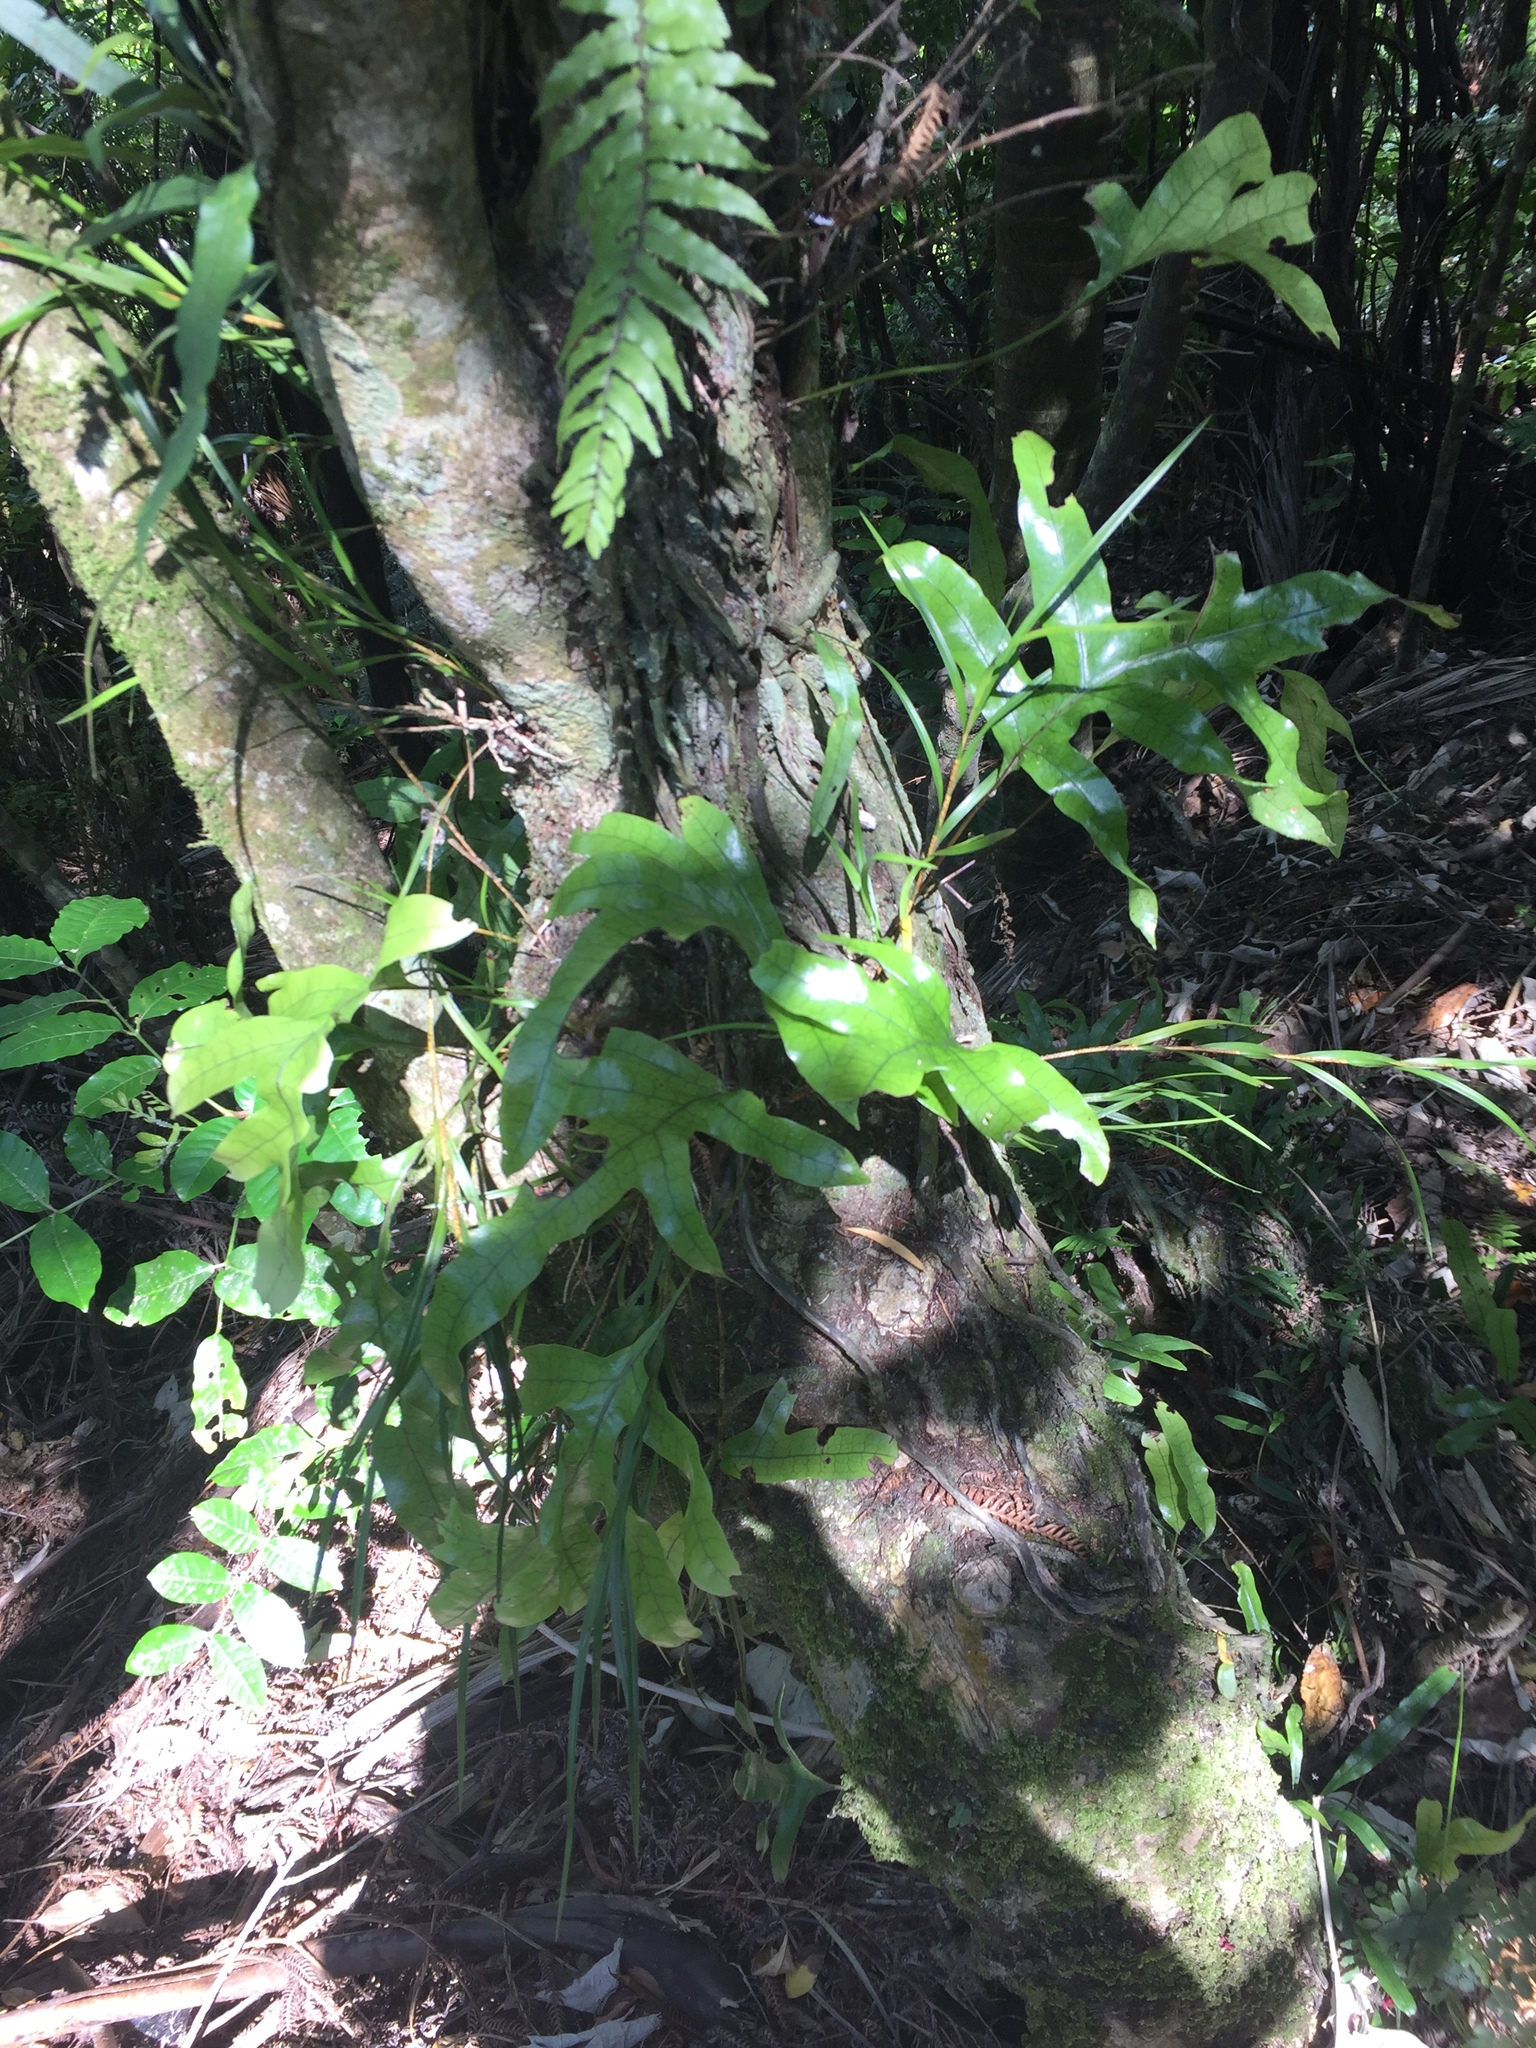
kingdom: Plantae
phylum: Tracheophyta
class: Polypodiopsida
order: Polypodiales
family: Polypodiaceae
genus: Lecanopteris
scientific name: Lecanopteris pustulata
